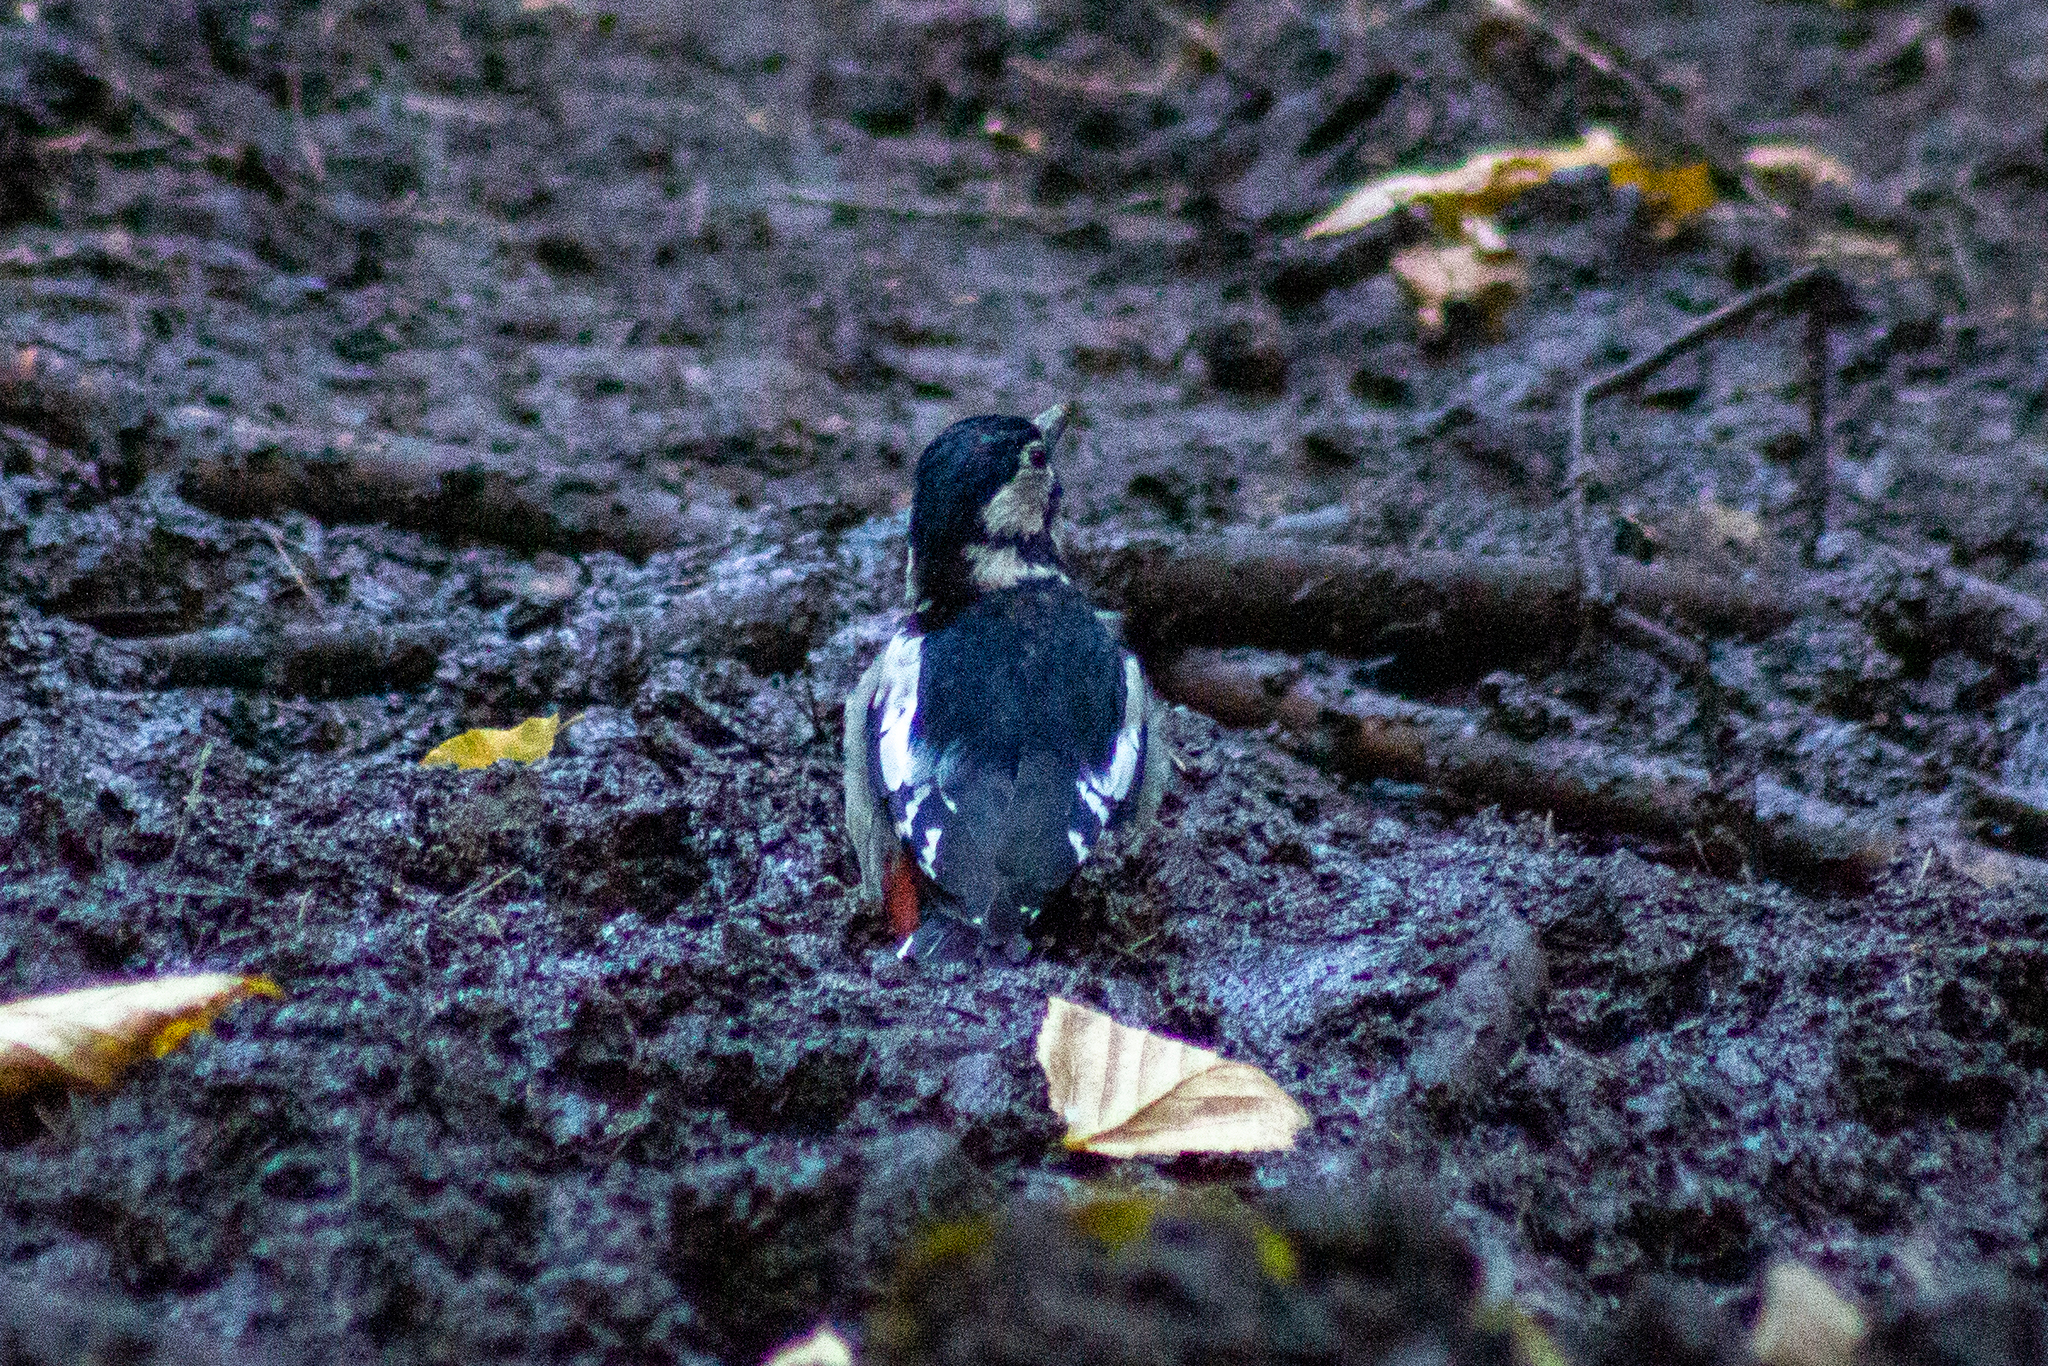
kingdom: Animalia
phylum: Chordata
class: Aves
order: Piciformes
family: Picidae
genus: Dendrocopos
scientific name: Dendrocopos major
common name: Great spotted woodpecker
